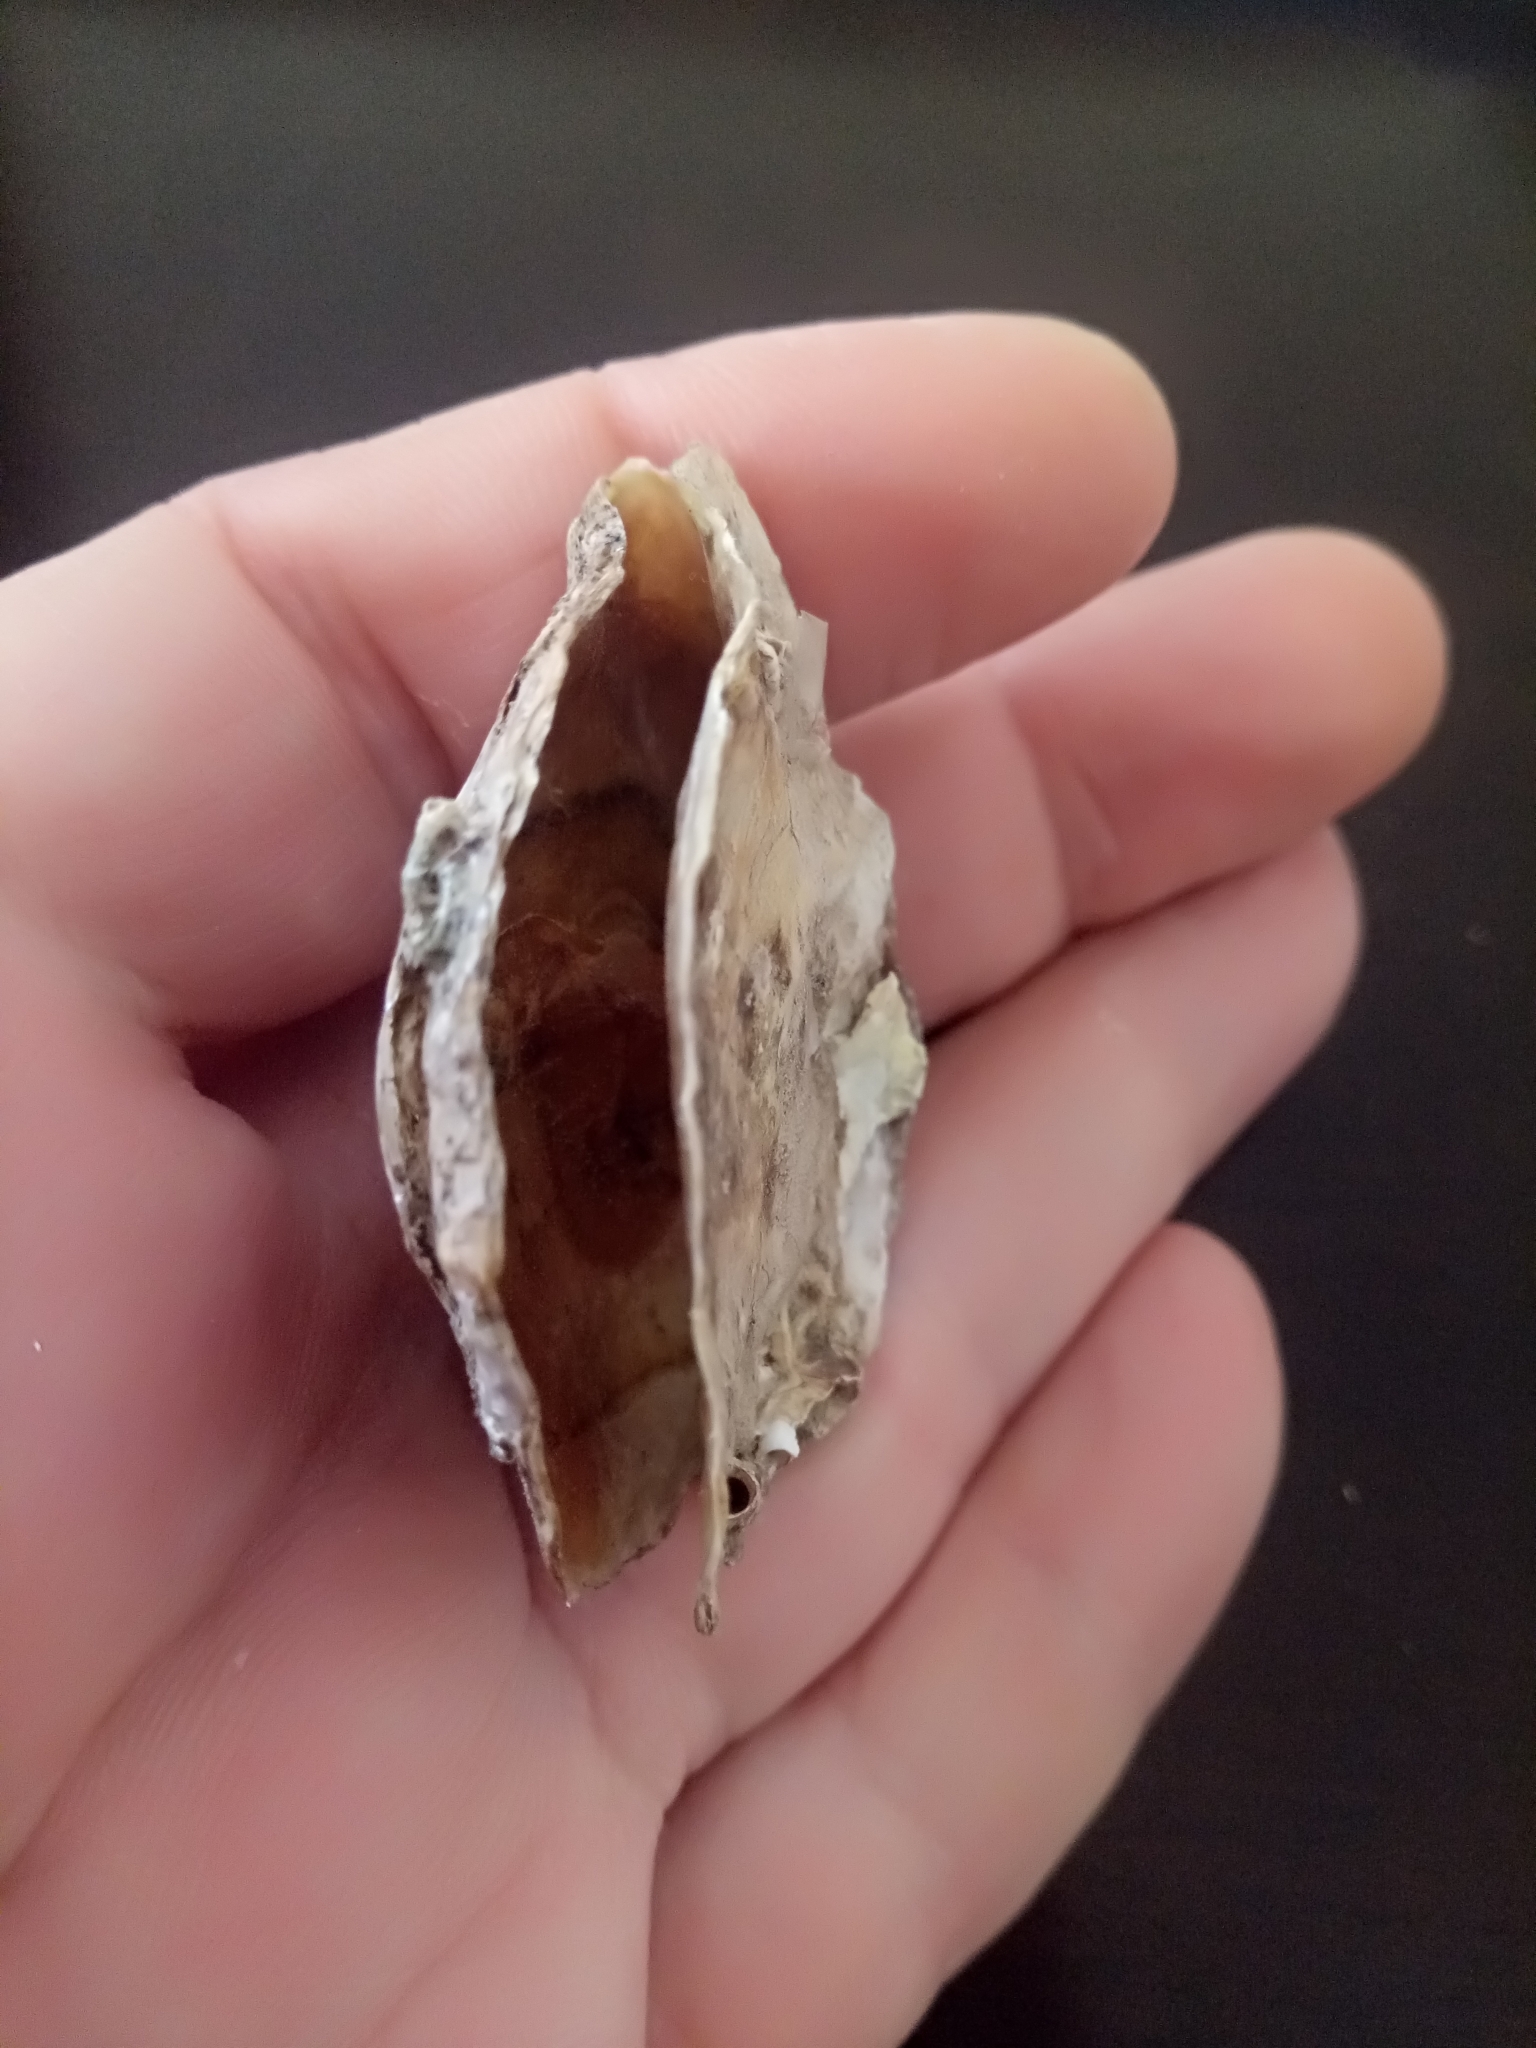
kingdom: Animalia
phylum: Mollusca
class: Bivalvia
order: Ostreida
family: Ostreidae
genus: Ostrea
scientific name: Ostrea edulis
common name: Flat oyster
